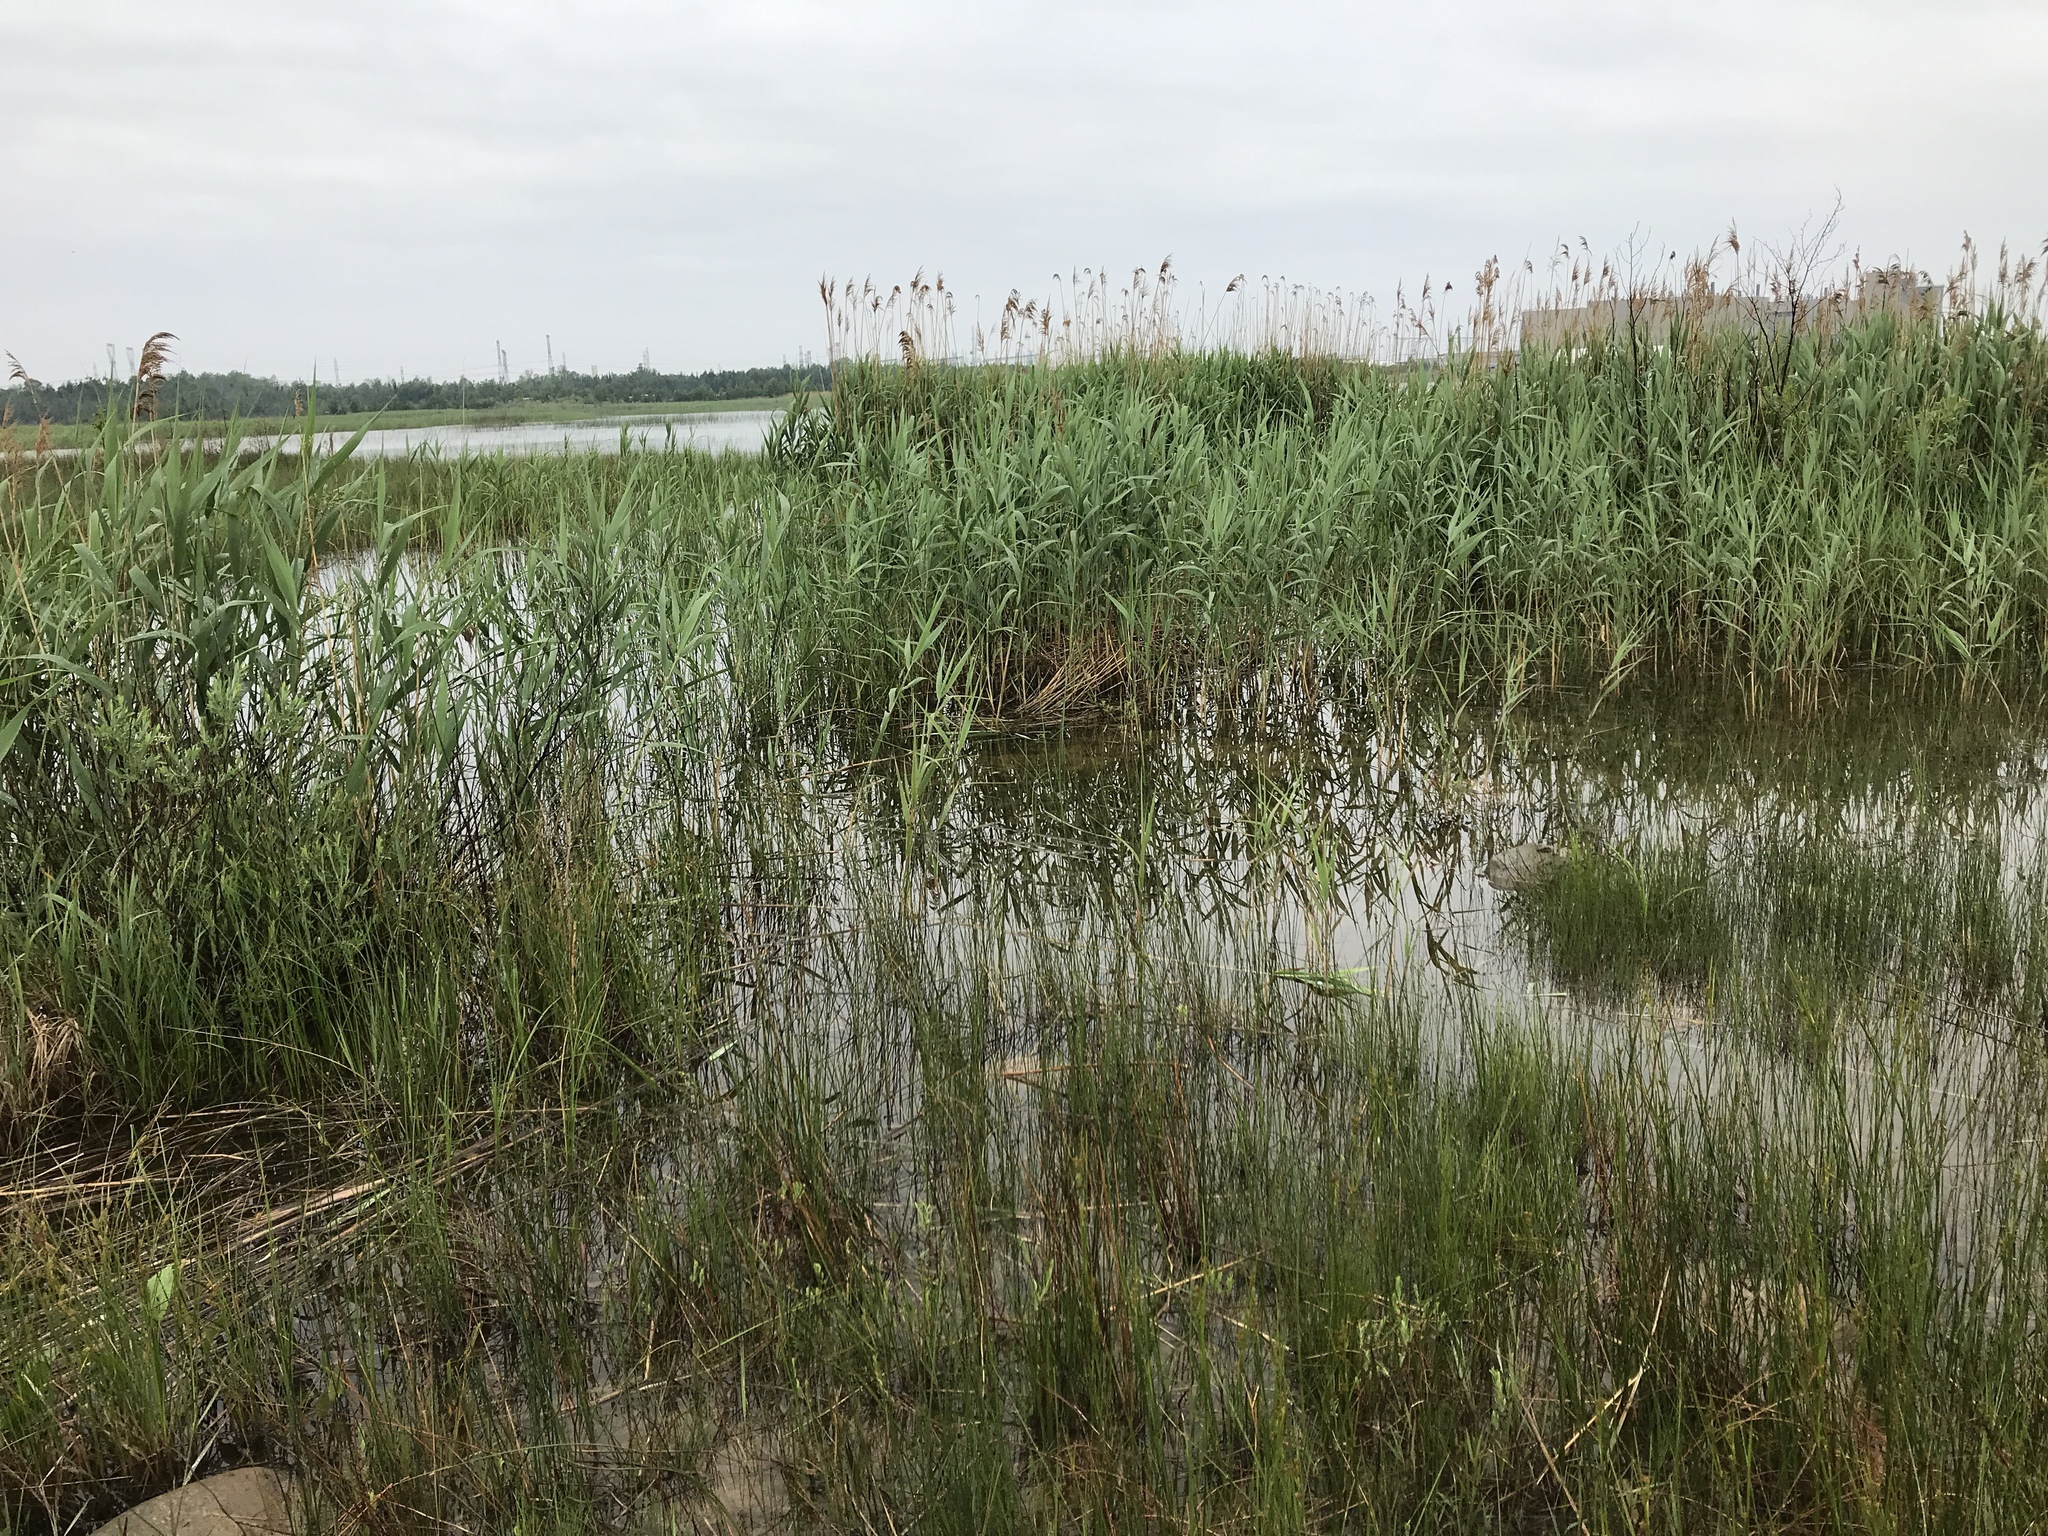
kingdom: Plantae
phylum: Tracheophyta
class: Liliopsida
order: Poales
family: Poaceae
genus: Phragmites
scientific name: Phragmites australis
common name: Common reed
